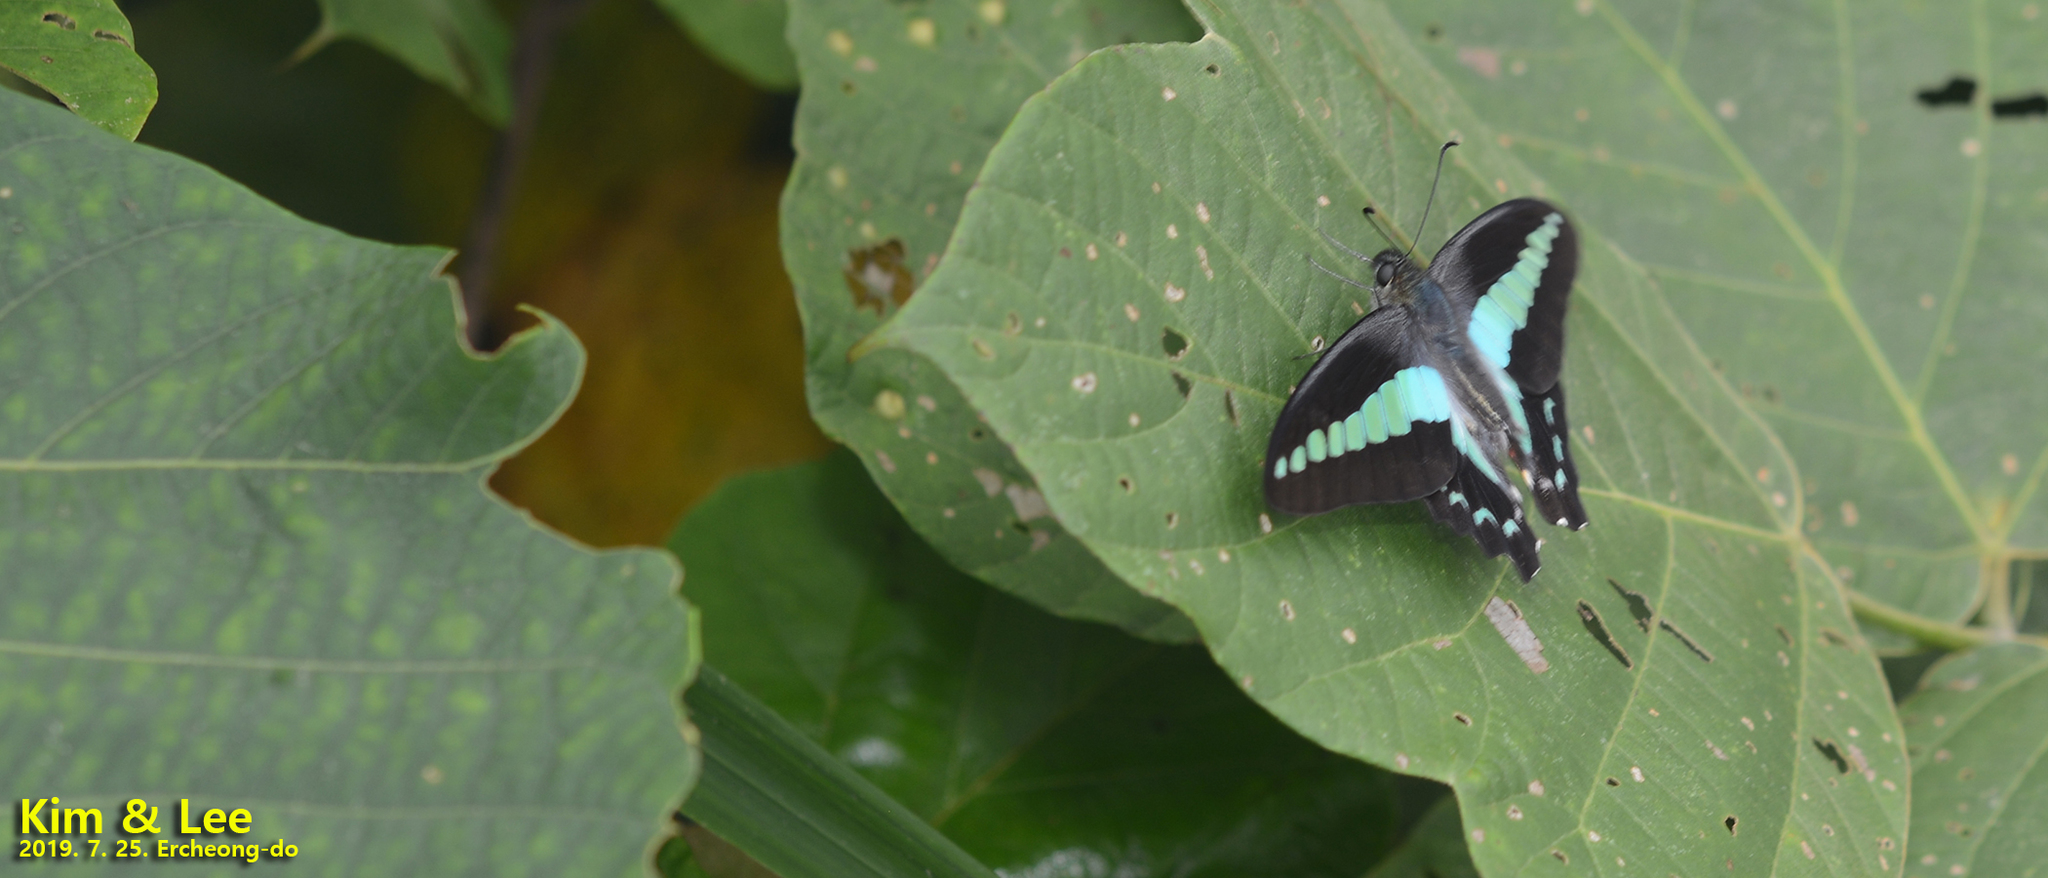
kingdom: Fungi
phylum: Ascomycota
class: Sordariomycetes
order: Microascales
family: Microascaceae
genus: Graphium
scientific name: Graphium sarpedon
